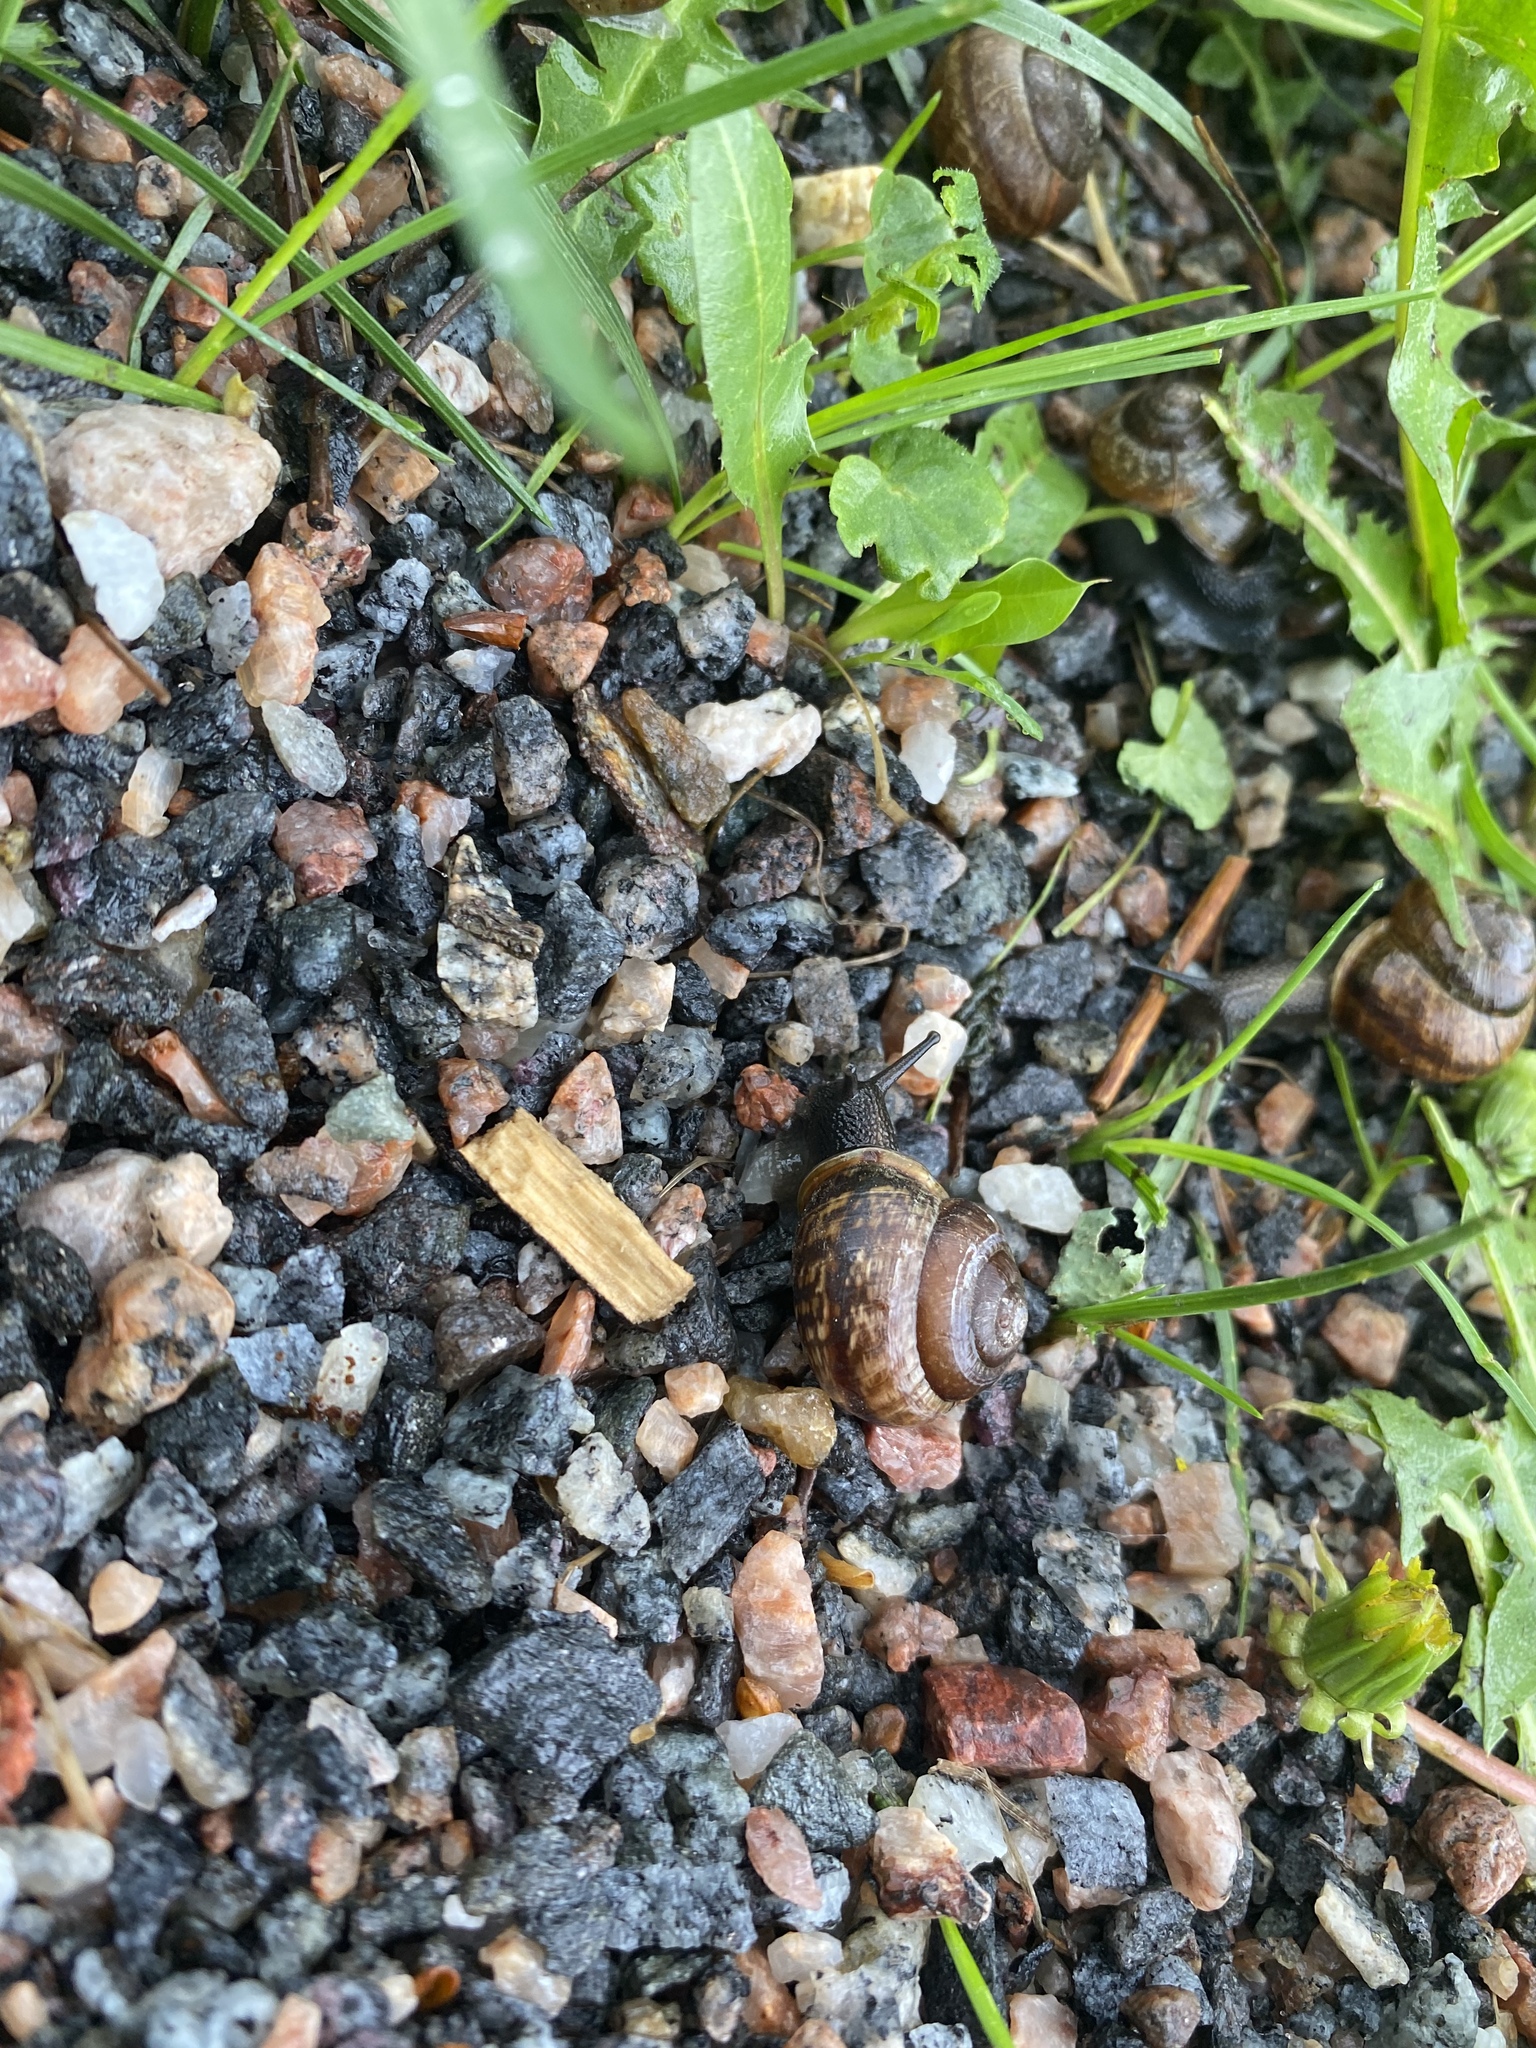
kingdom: Animalia
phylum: Mollusca
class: Gastropoda
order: Stylommatophora
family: Helicidae
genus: Arianta
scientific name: Arianta arbustorum
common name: Copse snail
